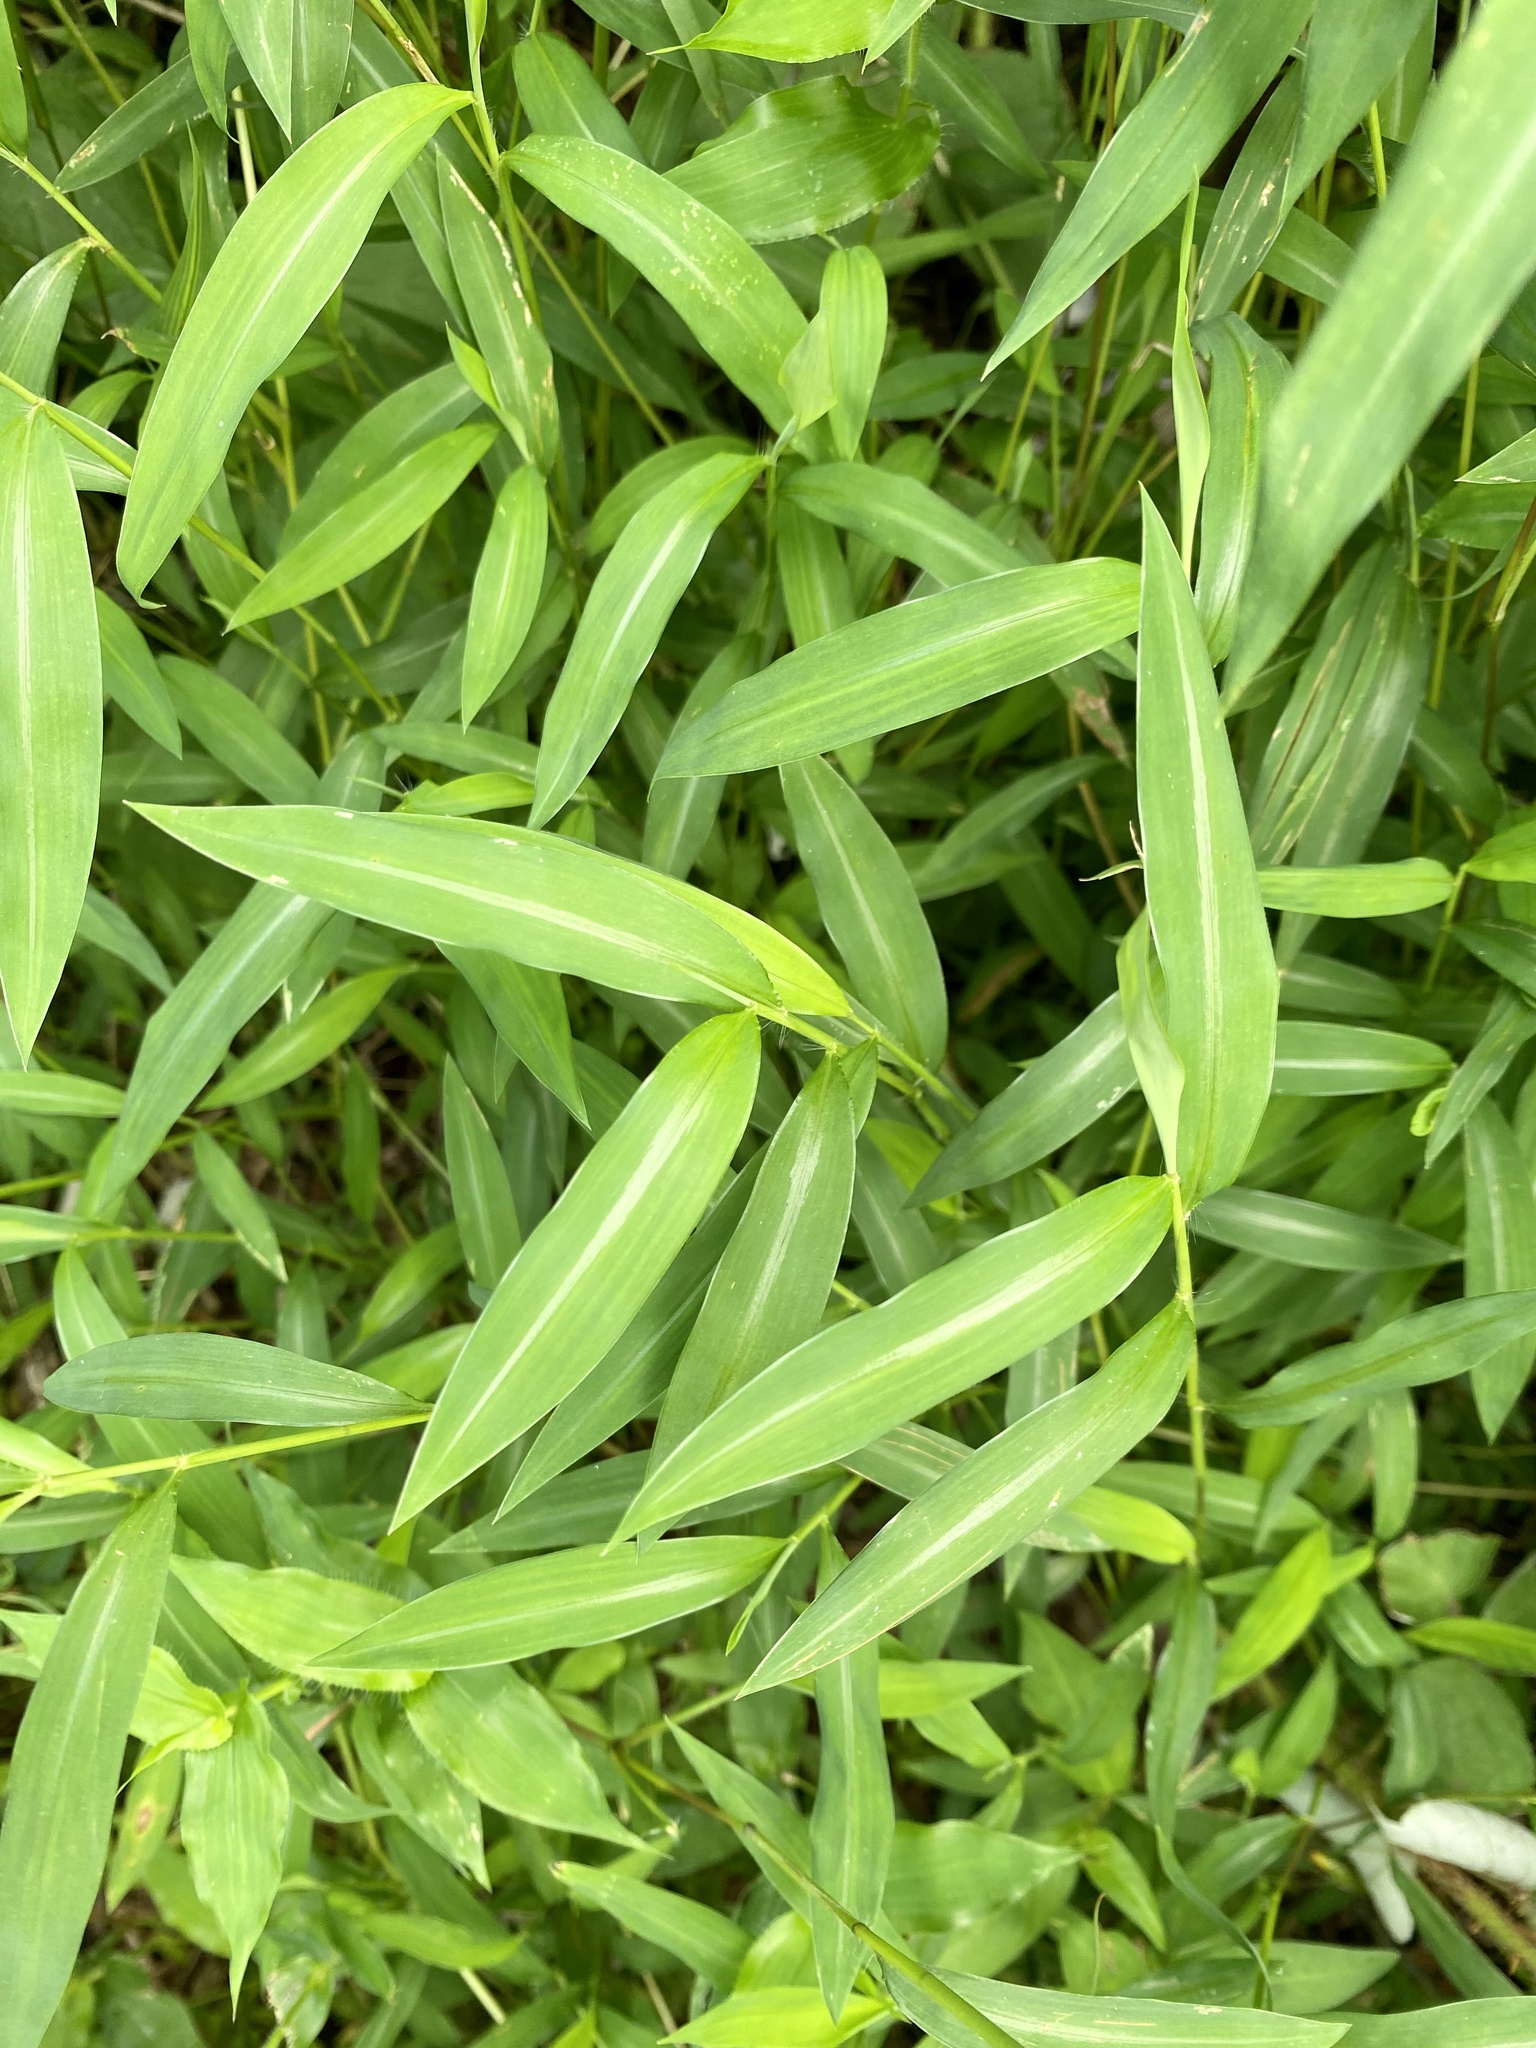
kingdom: Plantae
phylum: Tracheophyta
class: Liliopsida
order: Poales
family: Poaceae
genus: Microstegium
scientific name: Microstegium vimineum
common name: Japanese stiltgrass
